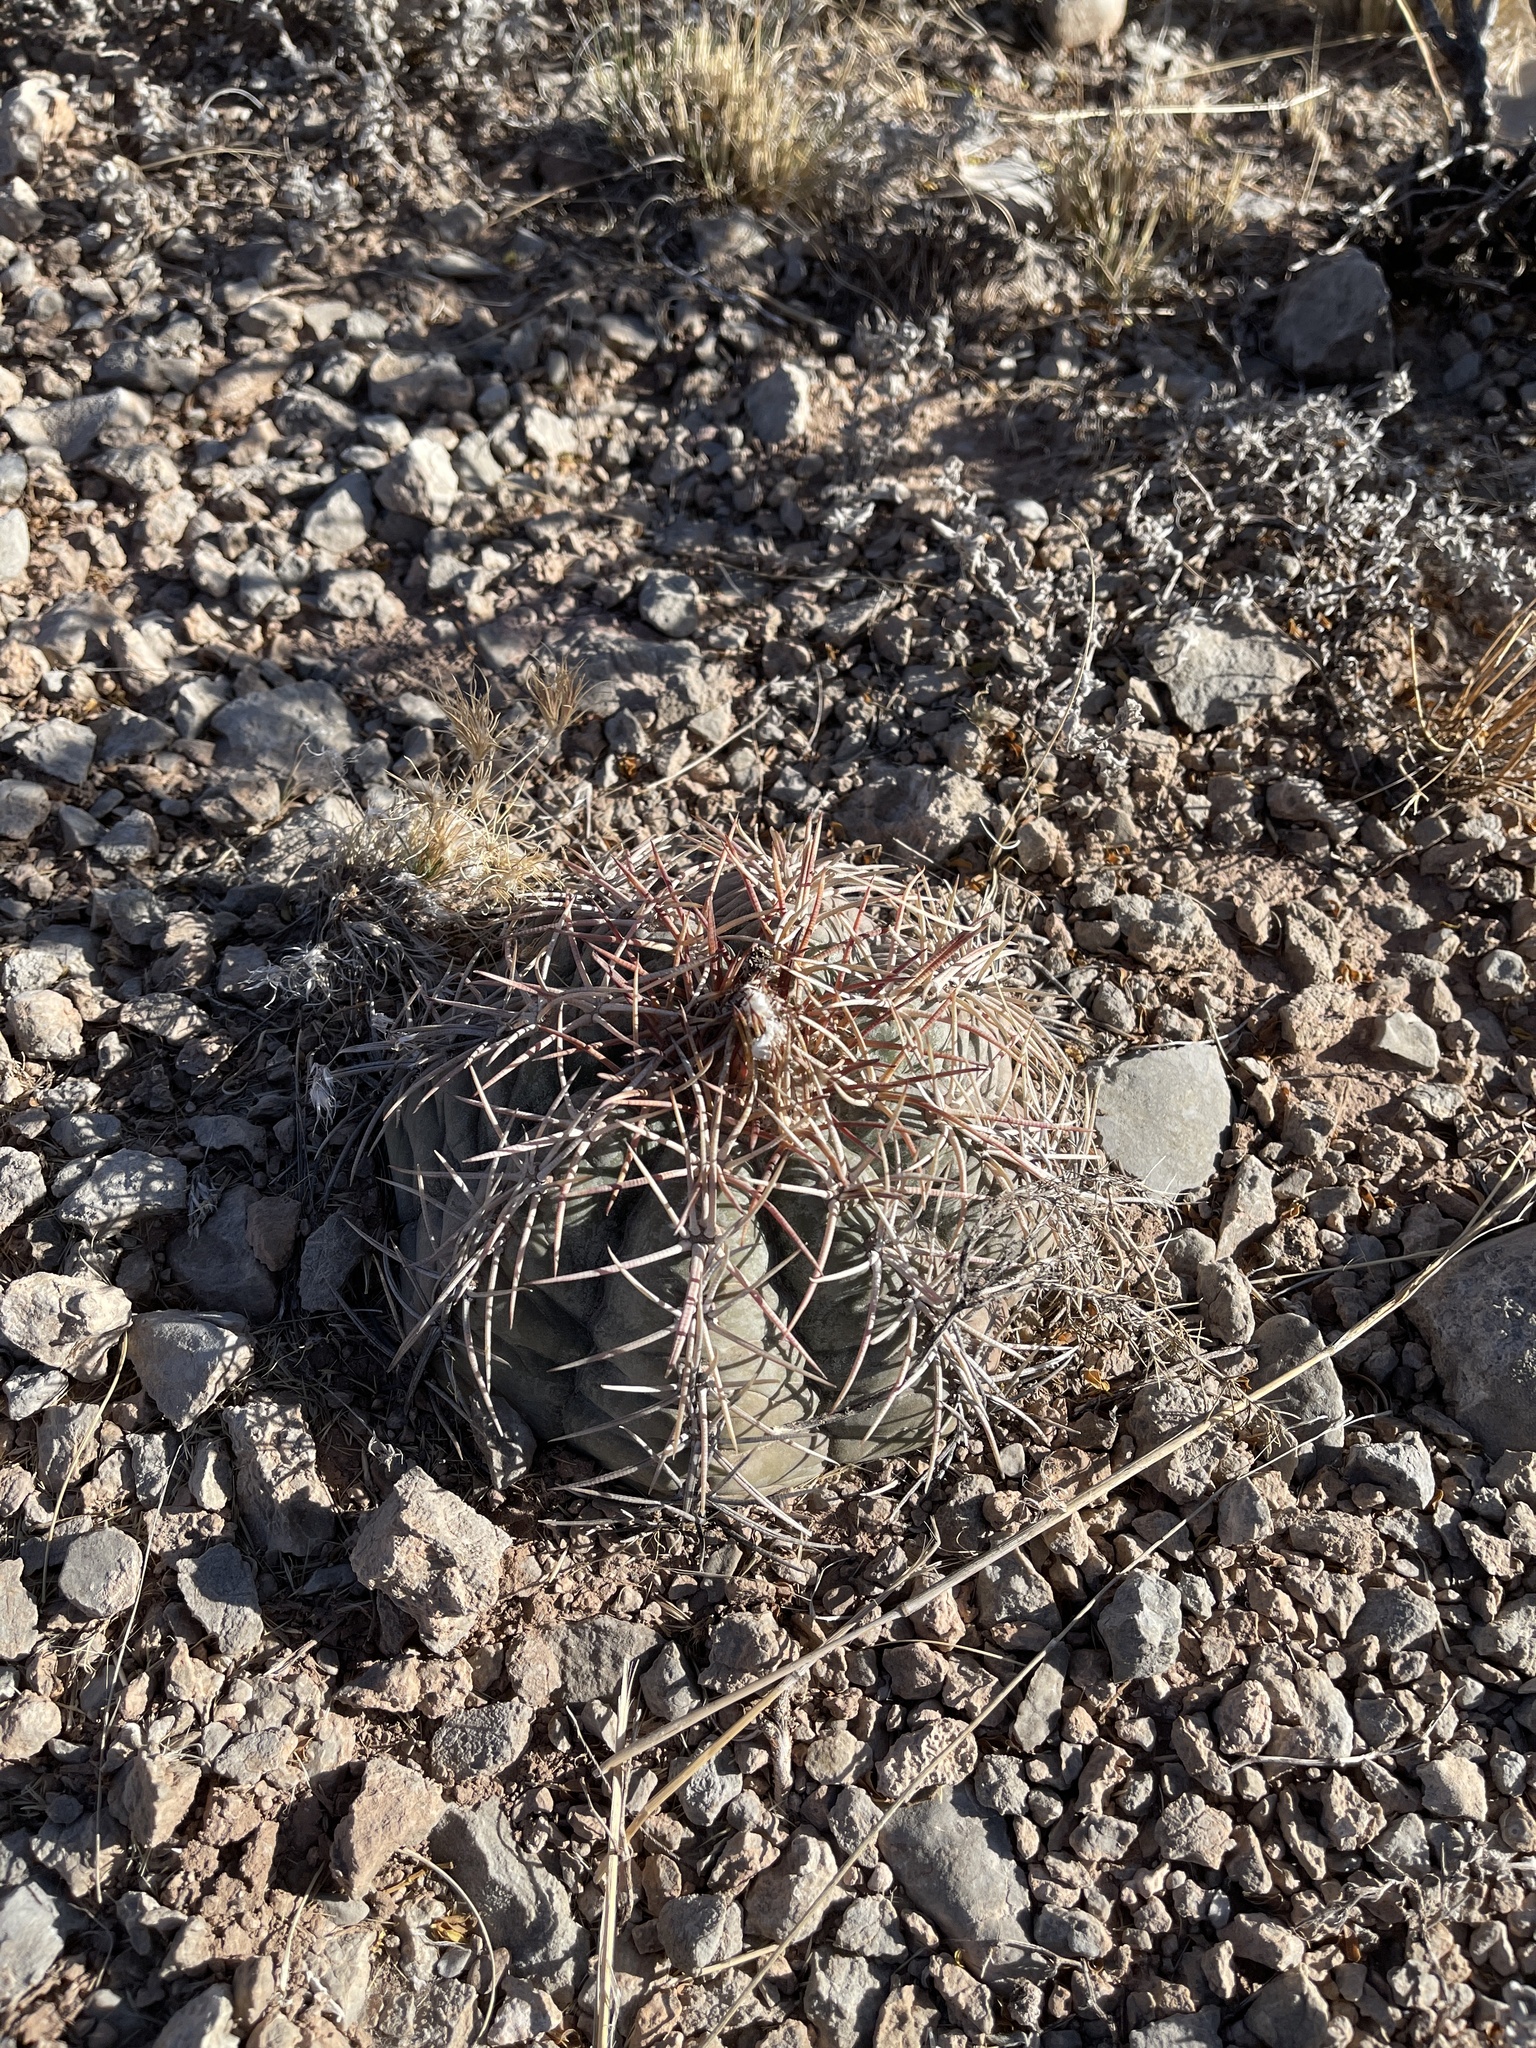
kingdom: Plantae
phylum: Tracheophyta
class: Magnoliopsida
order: Caryophyllales
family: Cactaceae
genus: Echinocactus
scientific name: Echinocactus horizonthalonius
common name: Devilshead
